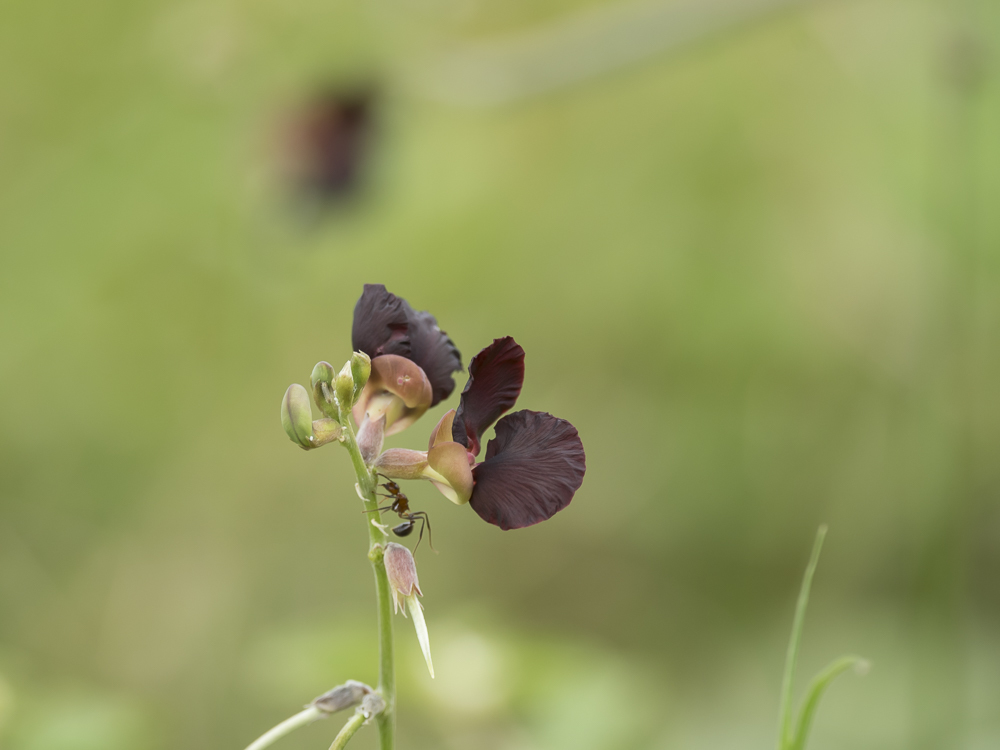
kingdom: Plantae
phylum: Tracheophyta
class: Magnoliopsida
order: Fabales
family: Fabaceae
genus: Macroptilium
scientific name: Macroptilium atropurpureum
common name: Purple bushbean
